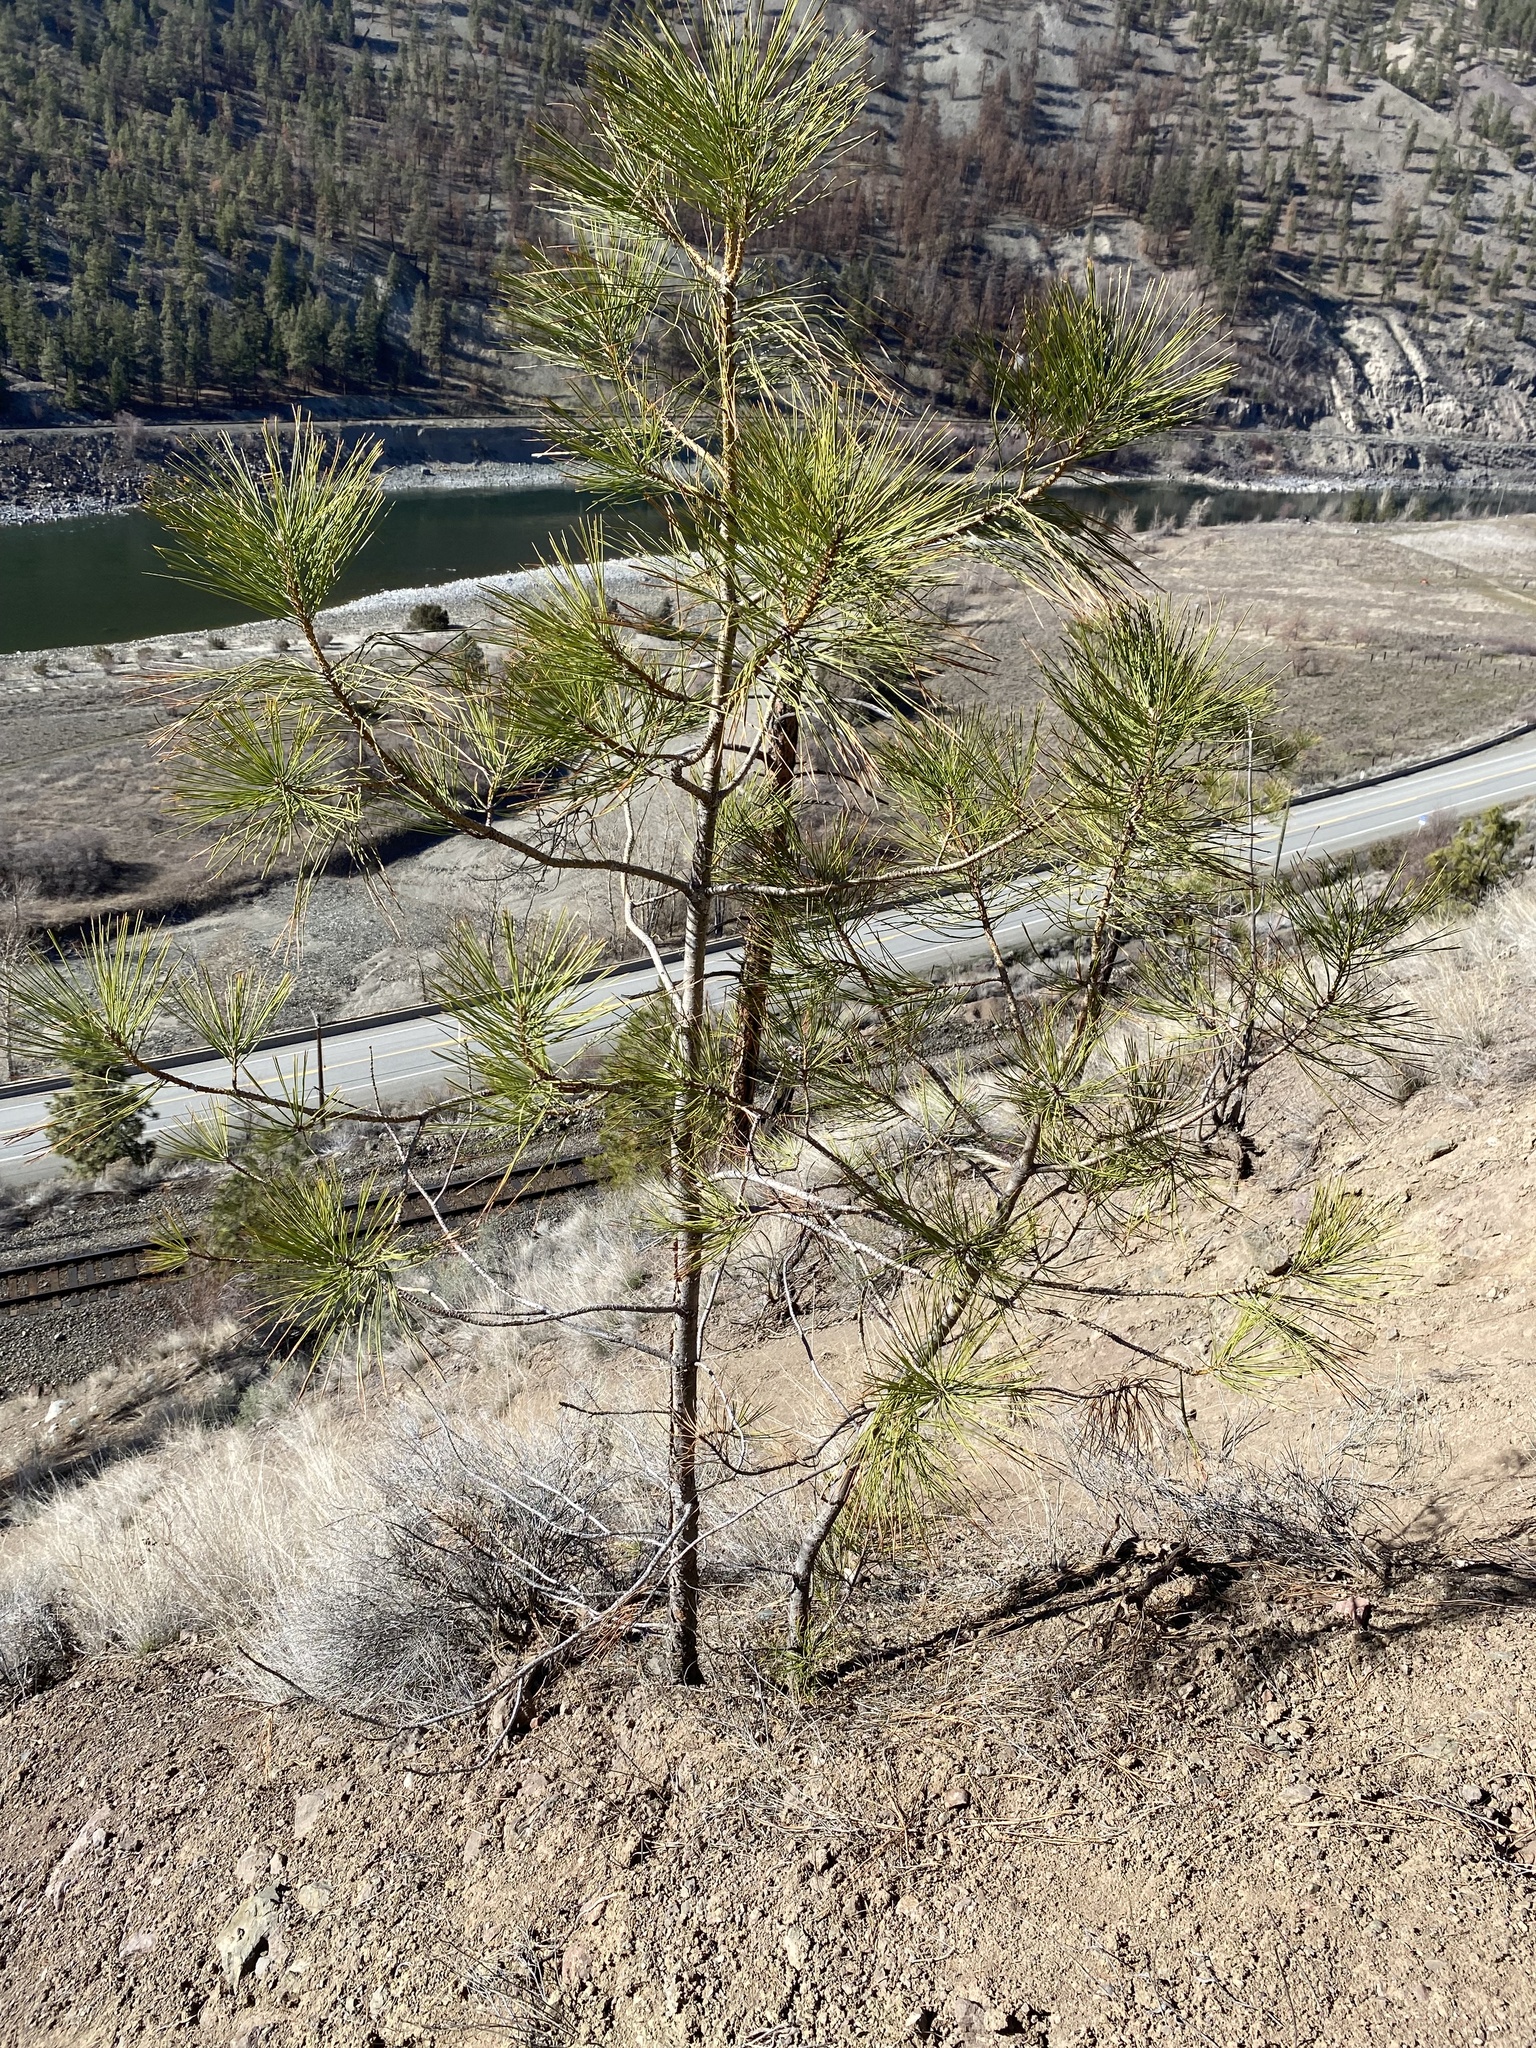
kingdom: Plantae
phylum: Tracheophyta
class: Pinopsida
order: Pinales
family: Pinaceae
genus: Pinus
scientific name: Pinus ponderosa
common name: Western yellow-pine
